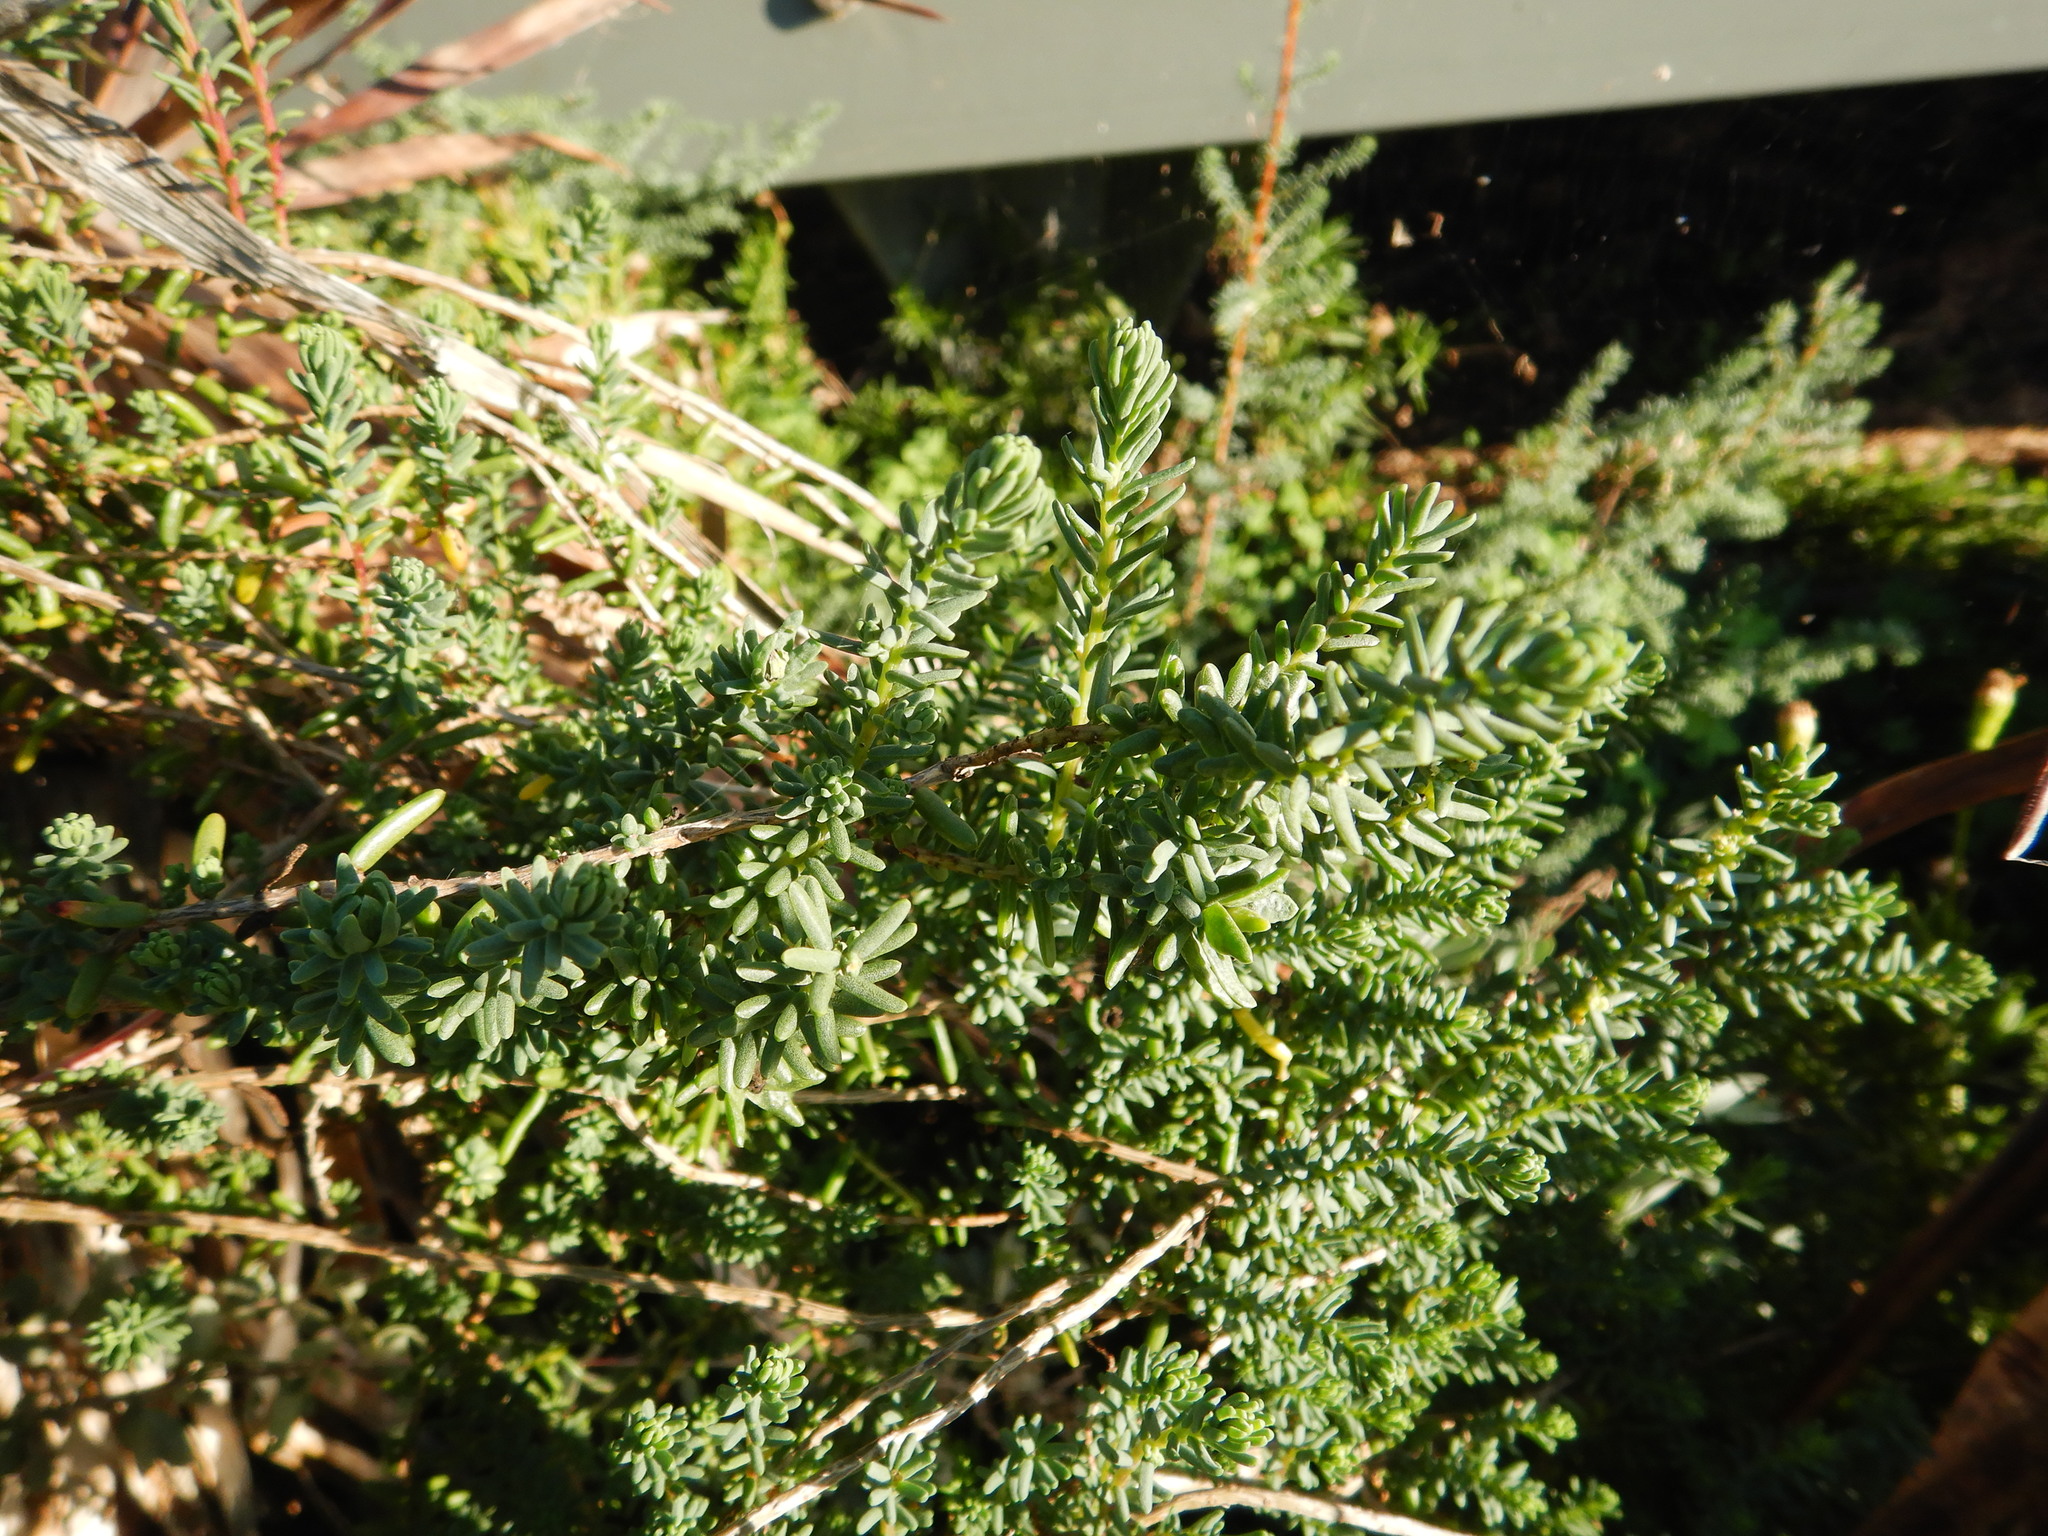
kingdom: Plantae
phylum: Tracheophyta
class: Magnoliopsida
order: Caryophyllales
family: Amaranthaceae
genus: Suaeda
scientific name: Suaeda vera
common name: Shrubby sea-blite
